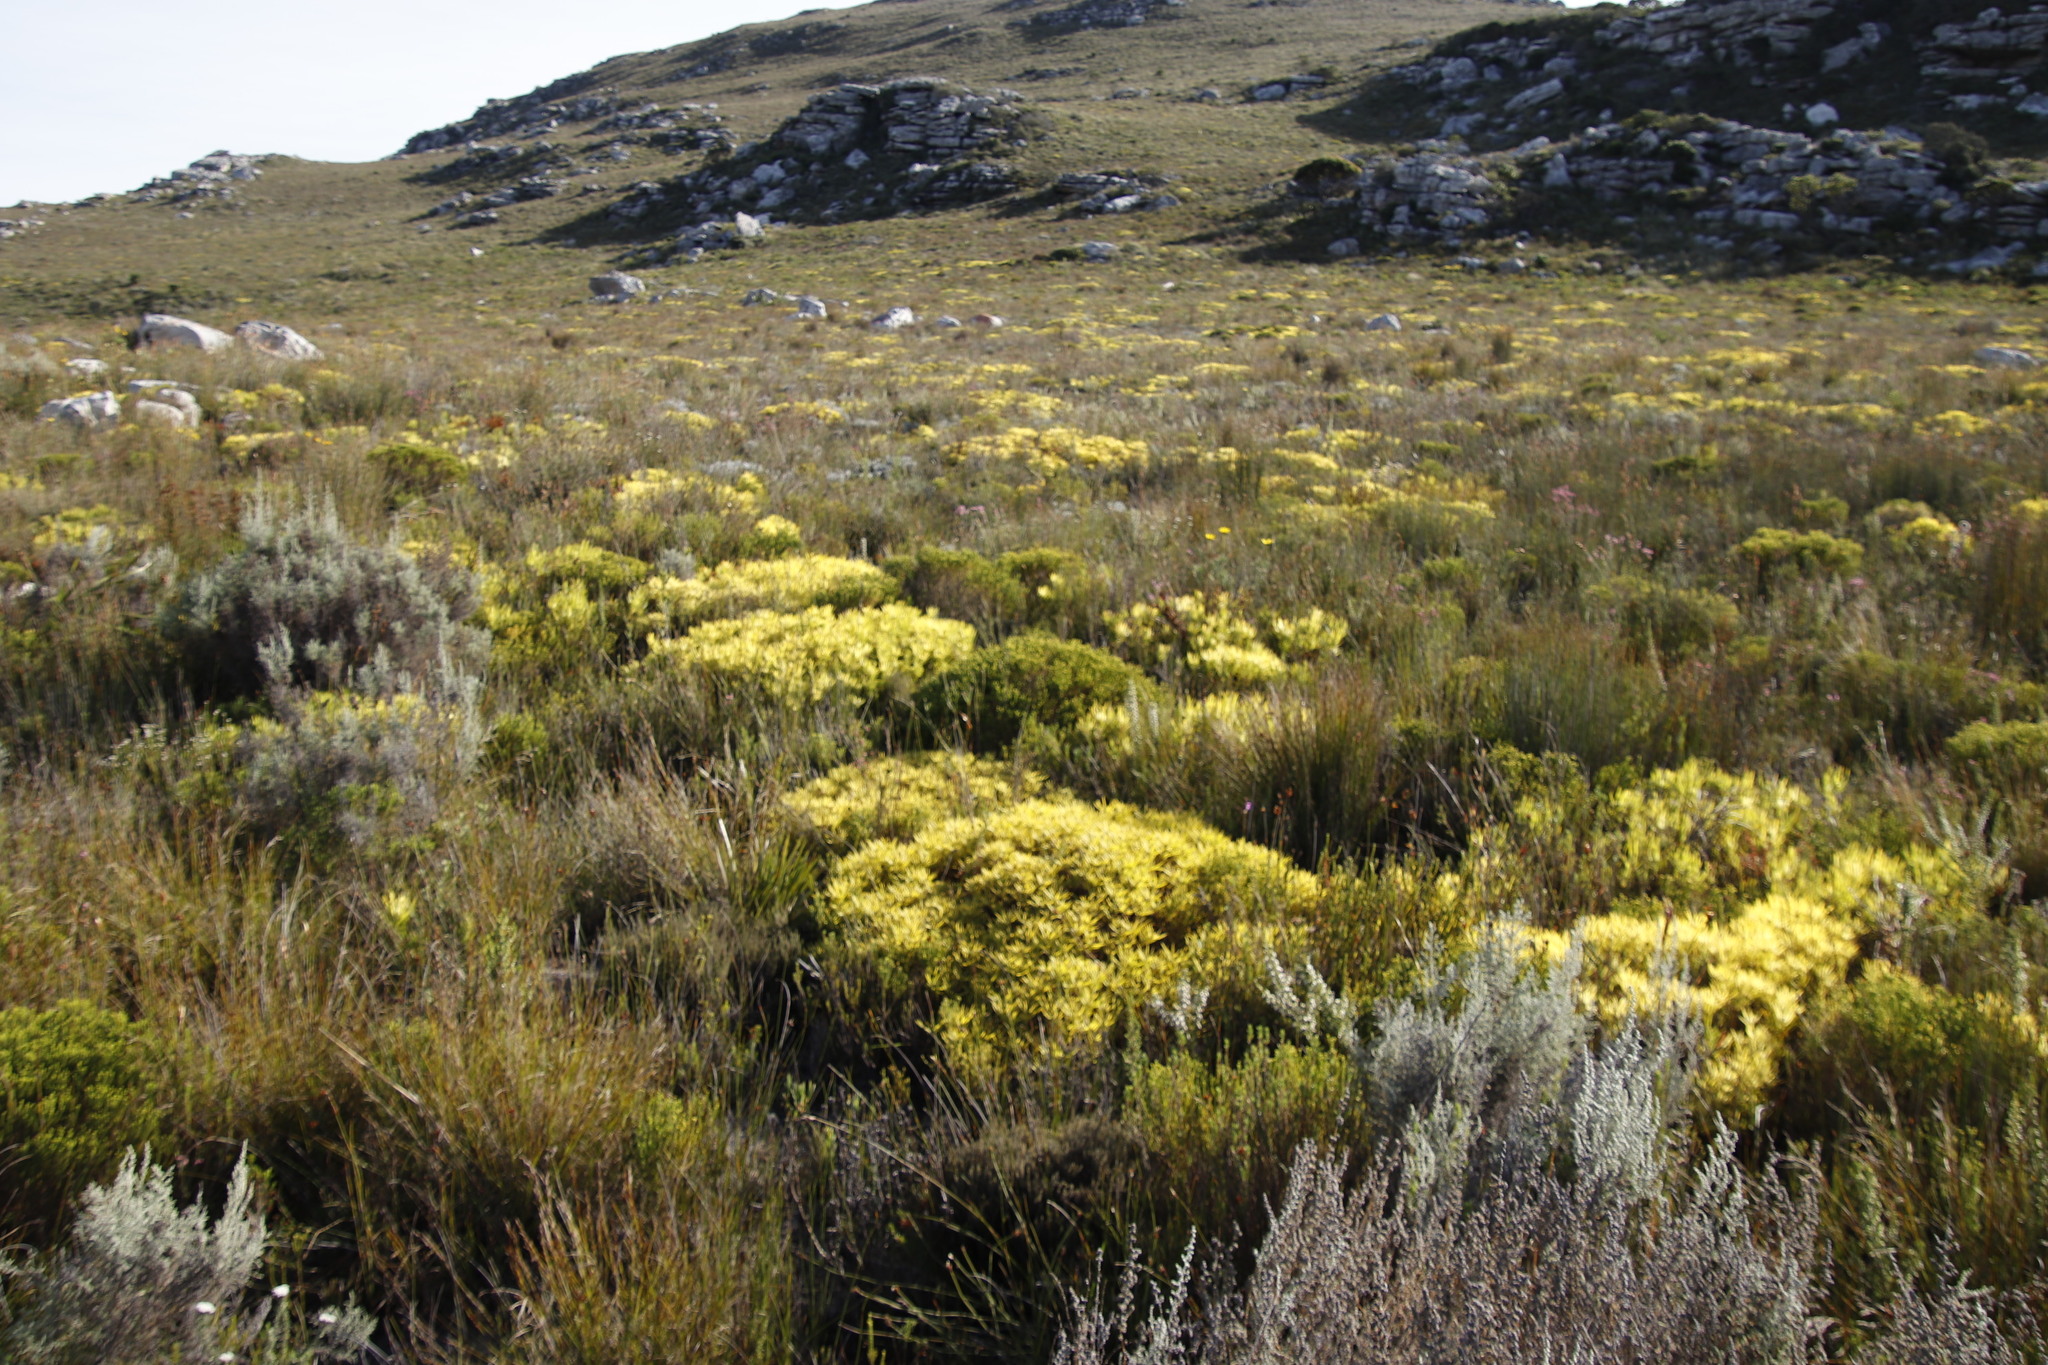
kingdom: Plantae
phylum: Tracheophyta
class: Magnoliopsida
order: Proteales
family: Proteaceae
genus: Leucadendron
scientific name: Leucadendron salignum
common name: Common sunshine conebush
